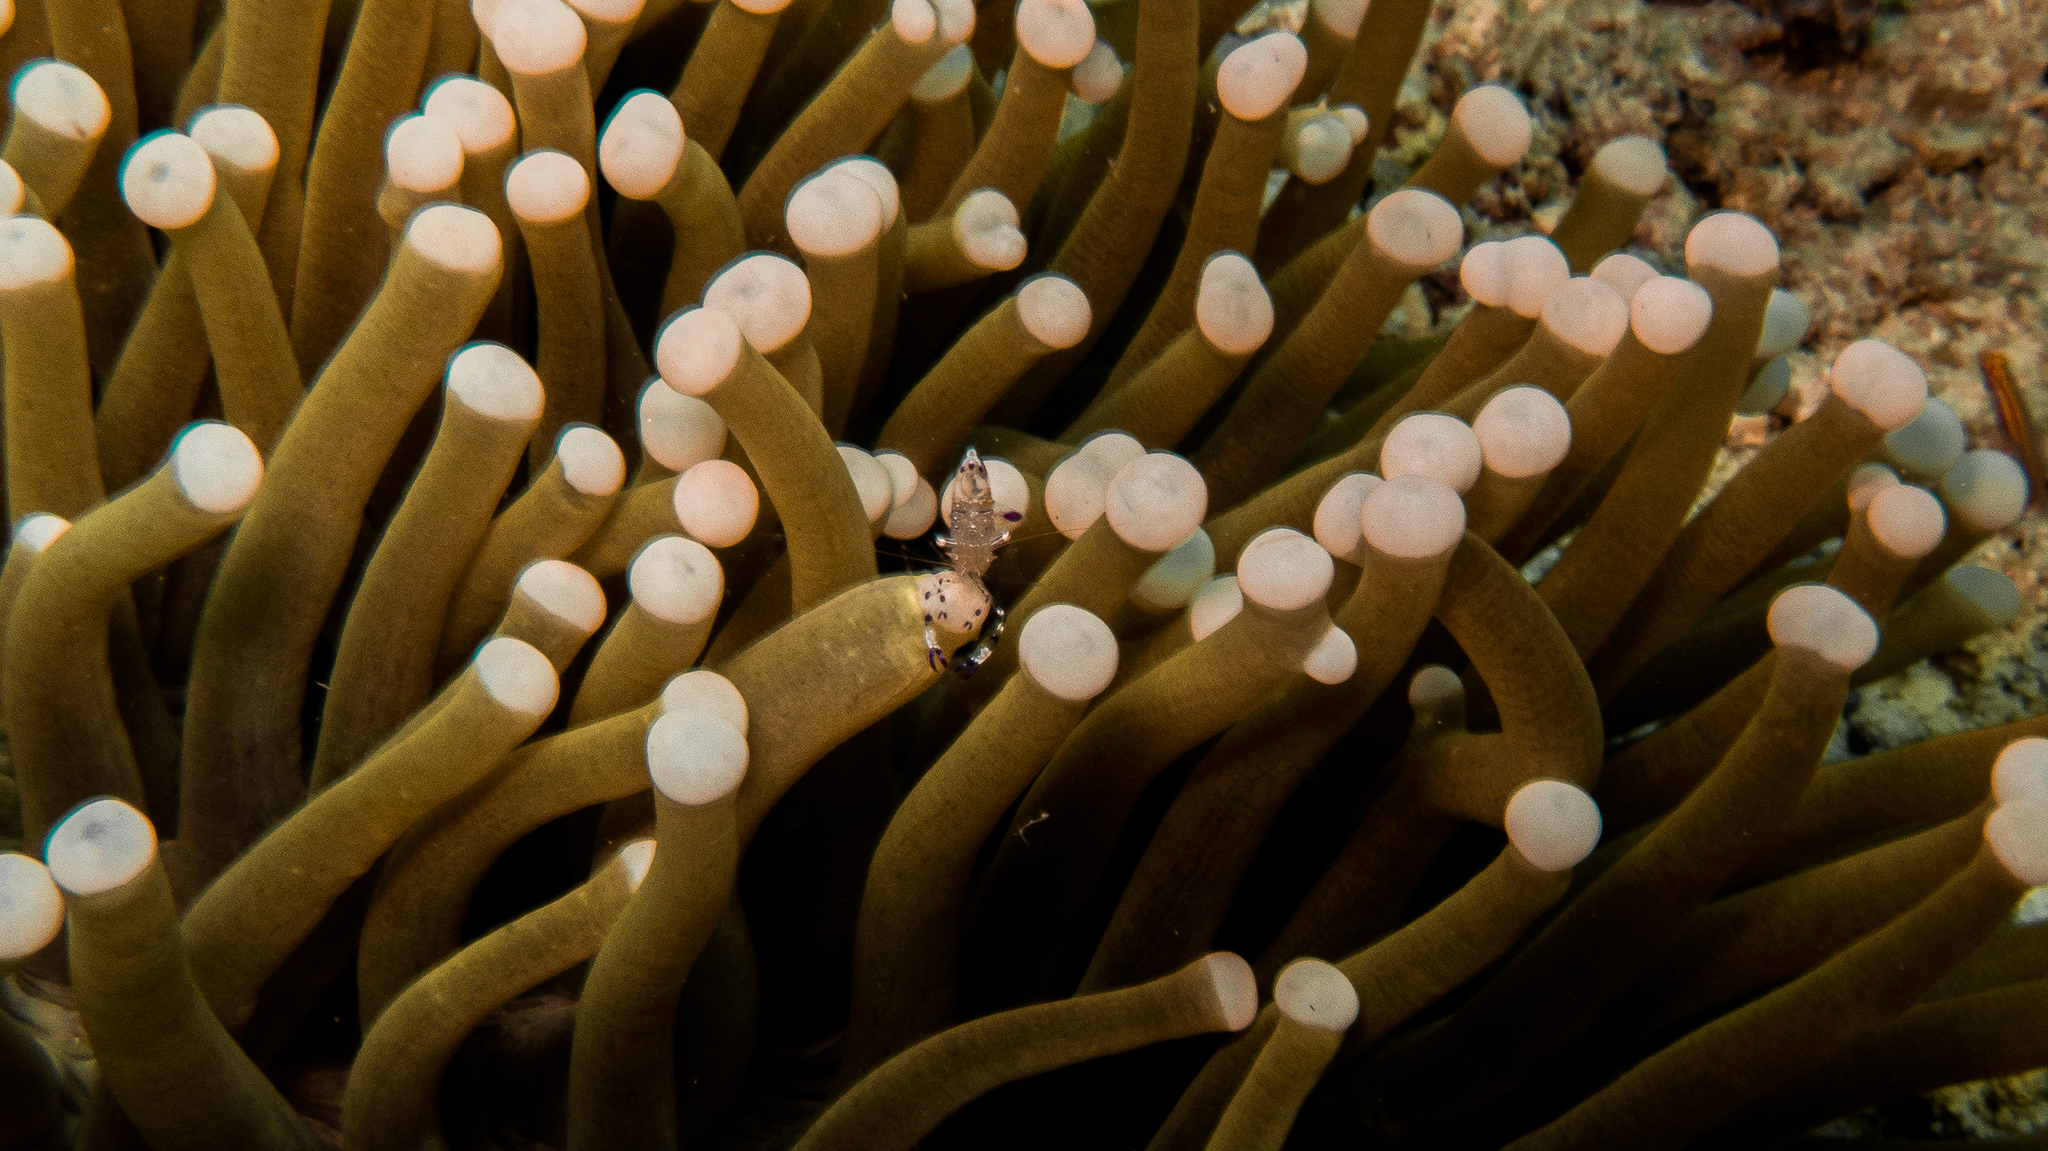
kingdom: Animalia
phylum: Arthropoda
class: Malacostraca
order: Decapoda
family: Palaemonidae
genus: Ancylomenes
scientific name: Ancylomenes speciosus
